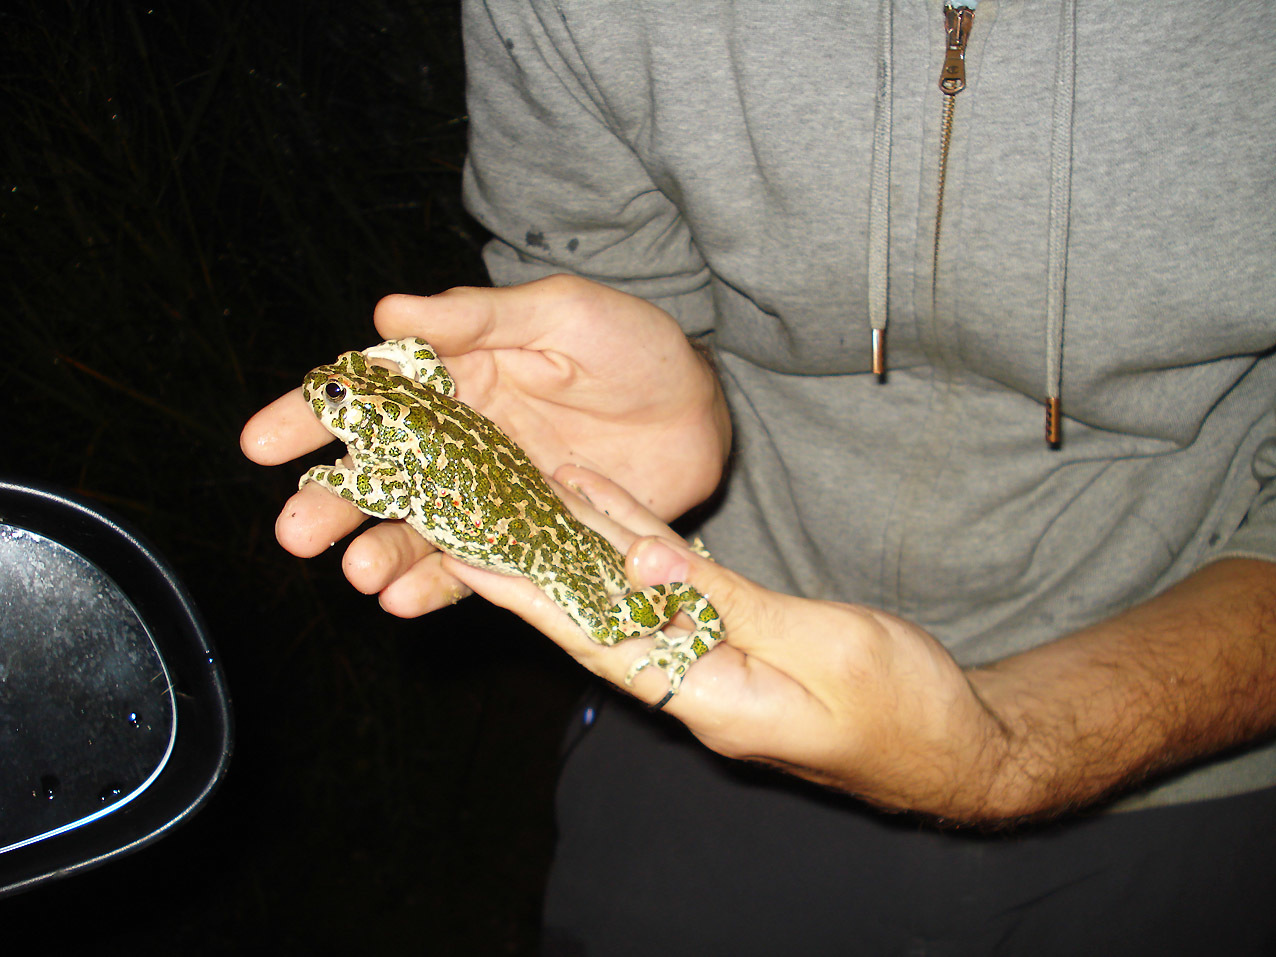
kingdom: Animalia
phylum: Chordata
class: Amphibia
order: Anura
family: Bufonidae
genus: Bufotes
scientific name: Bufotes viridis
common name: European green toad
